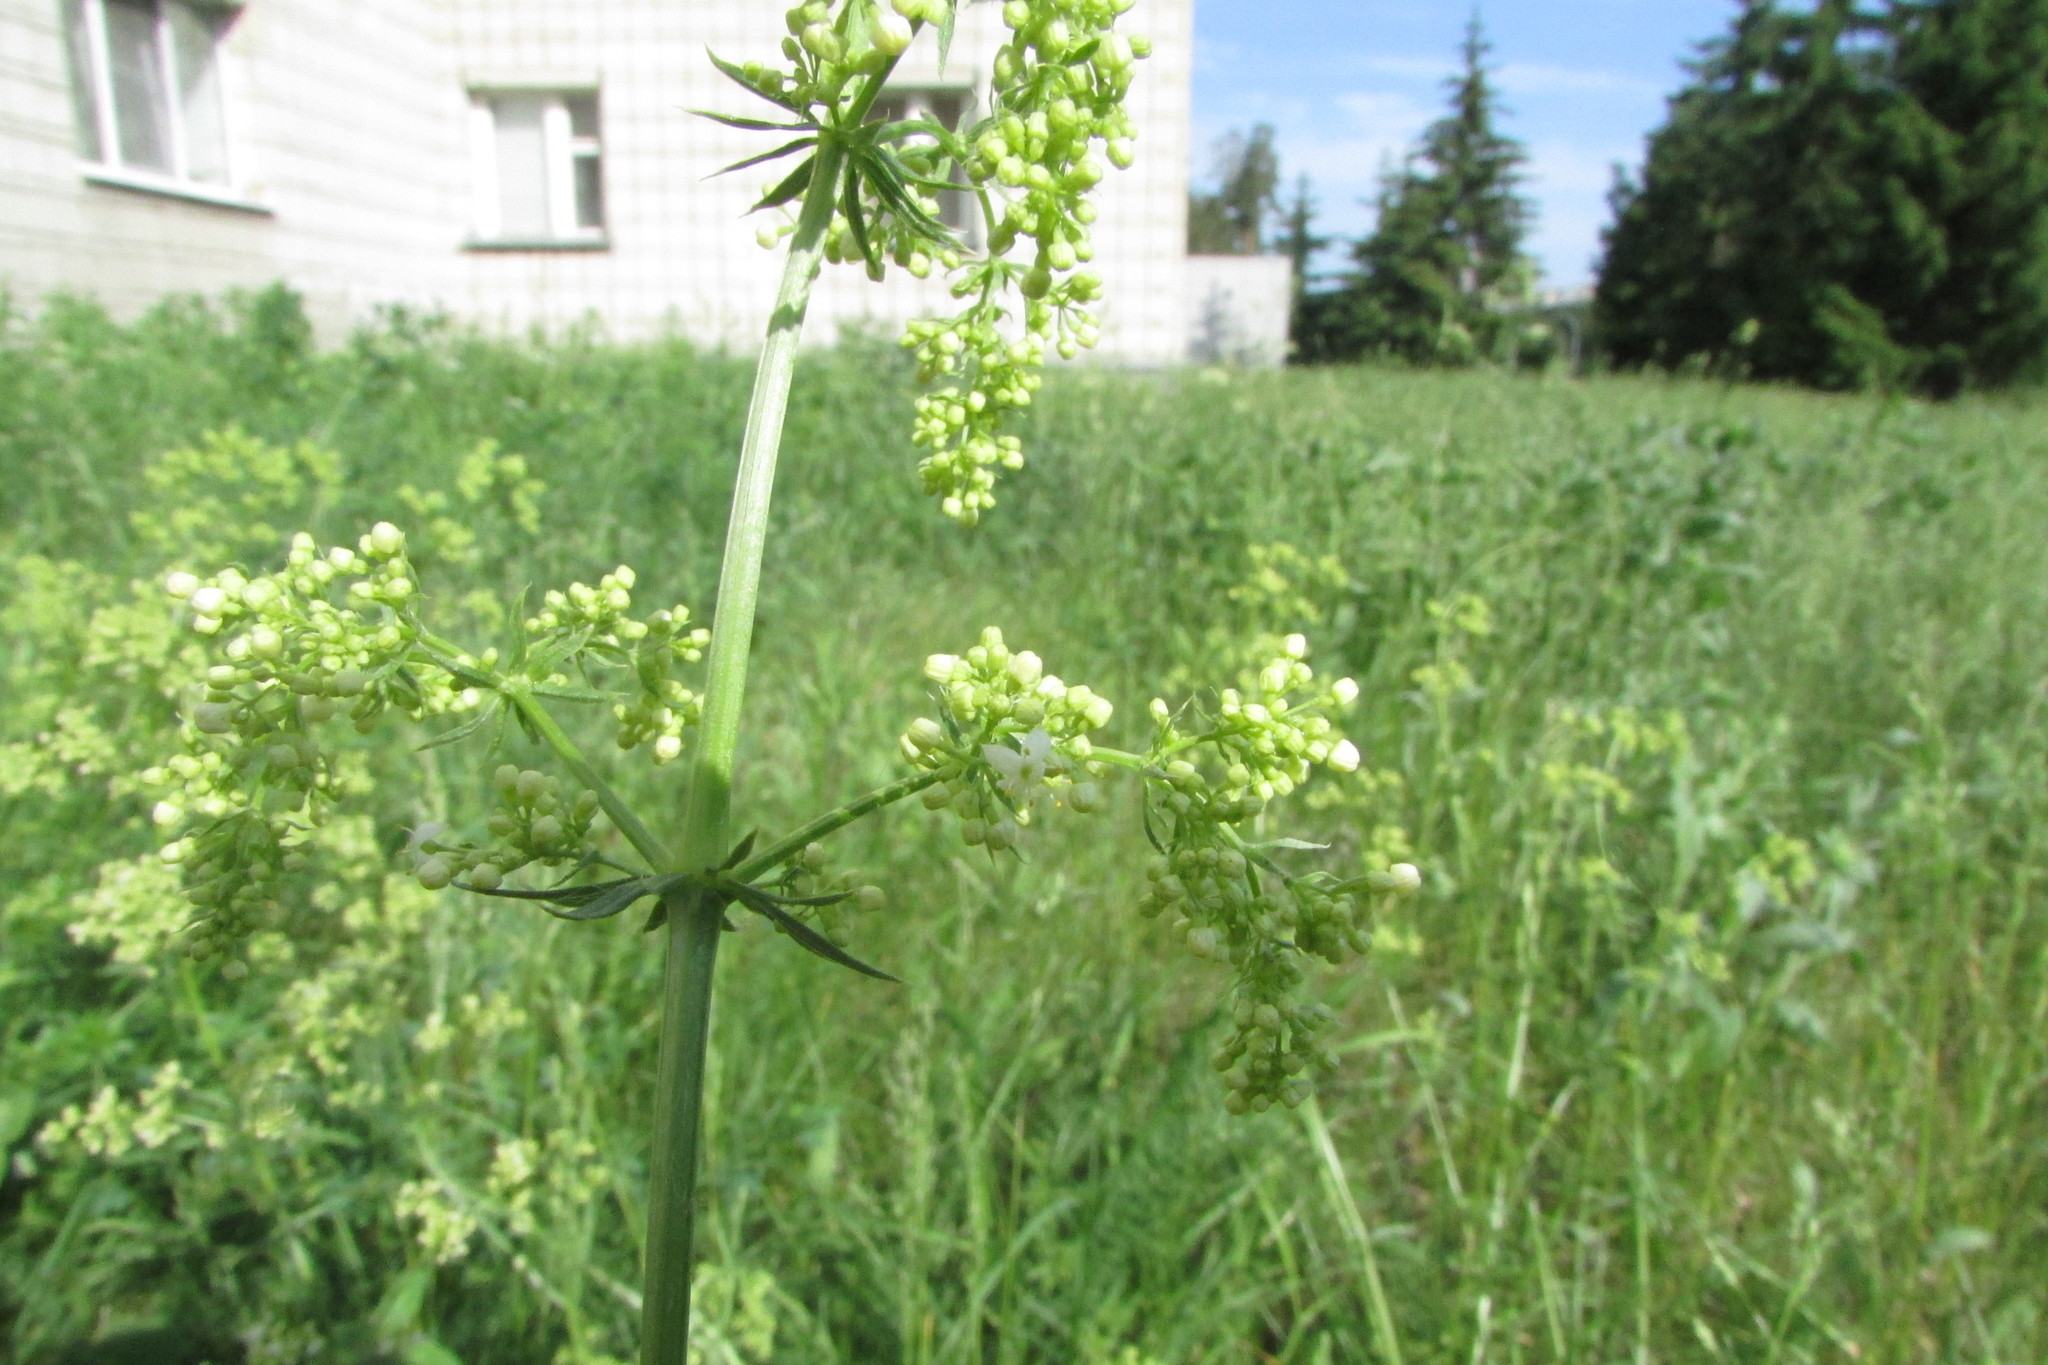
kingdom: Plantae
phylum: Tracheophyta
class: Magnoliopsida
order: Gentianales
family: Rubiaceae
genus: Galium
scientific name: Galium mollugo
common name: Hedge bedstraw
